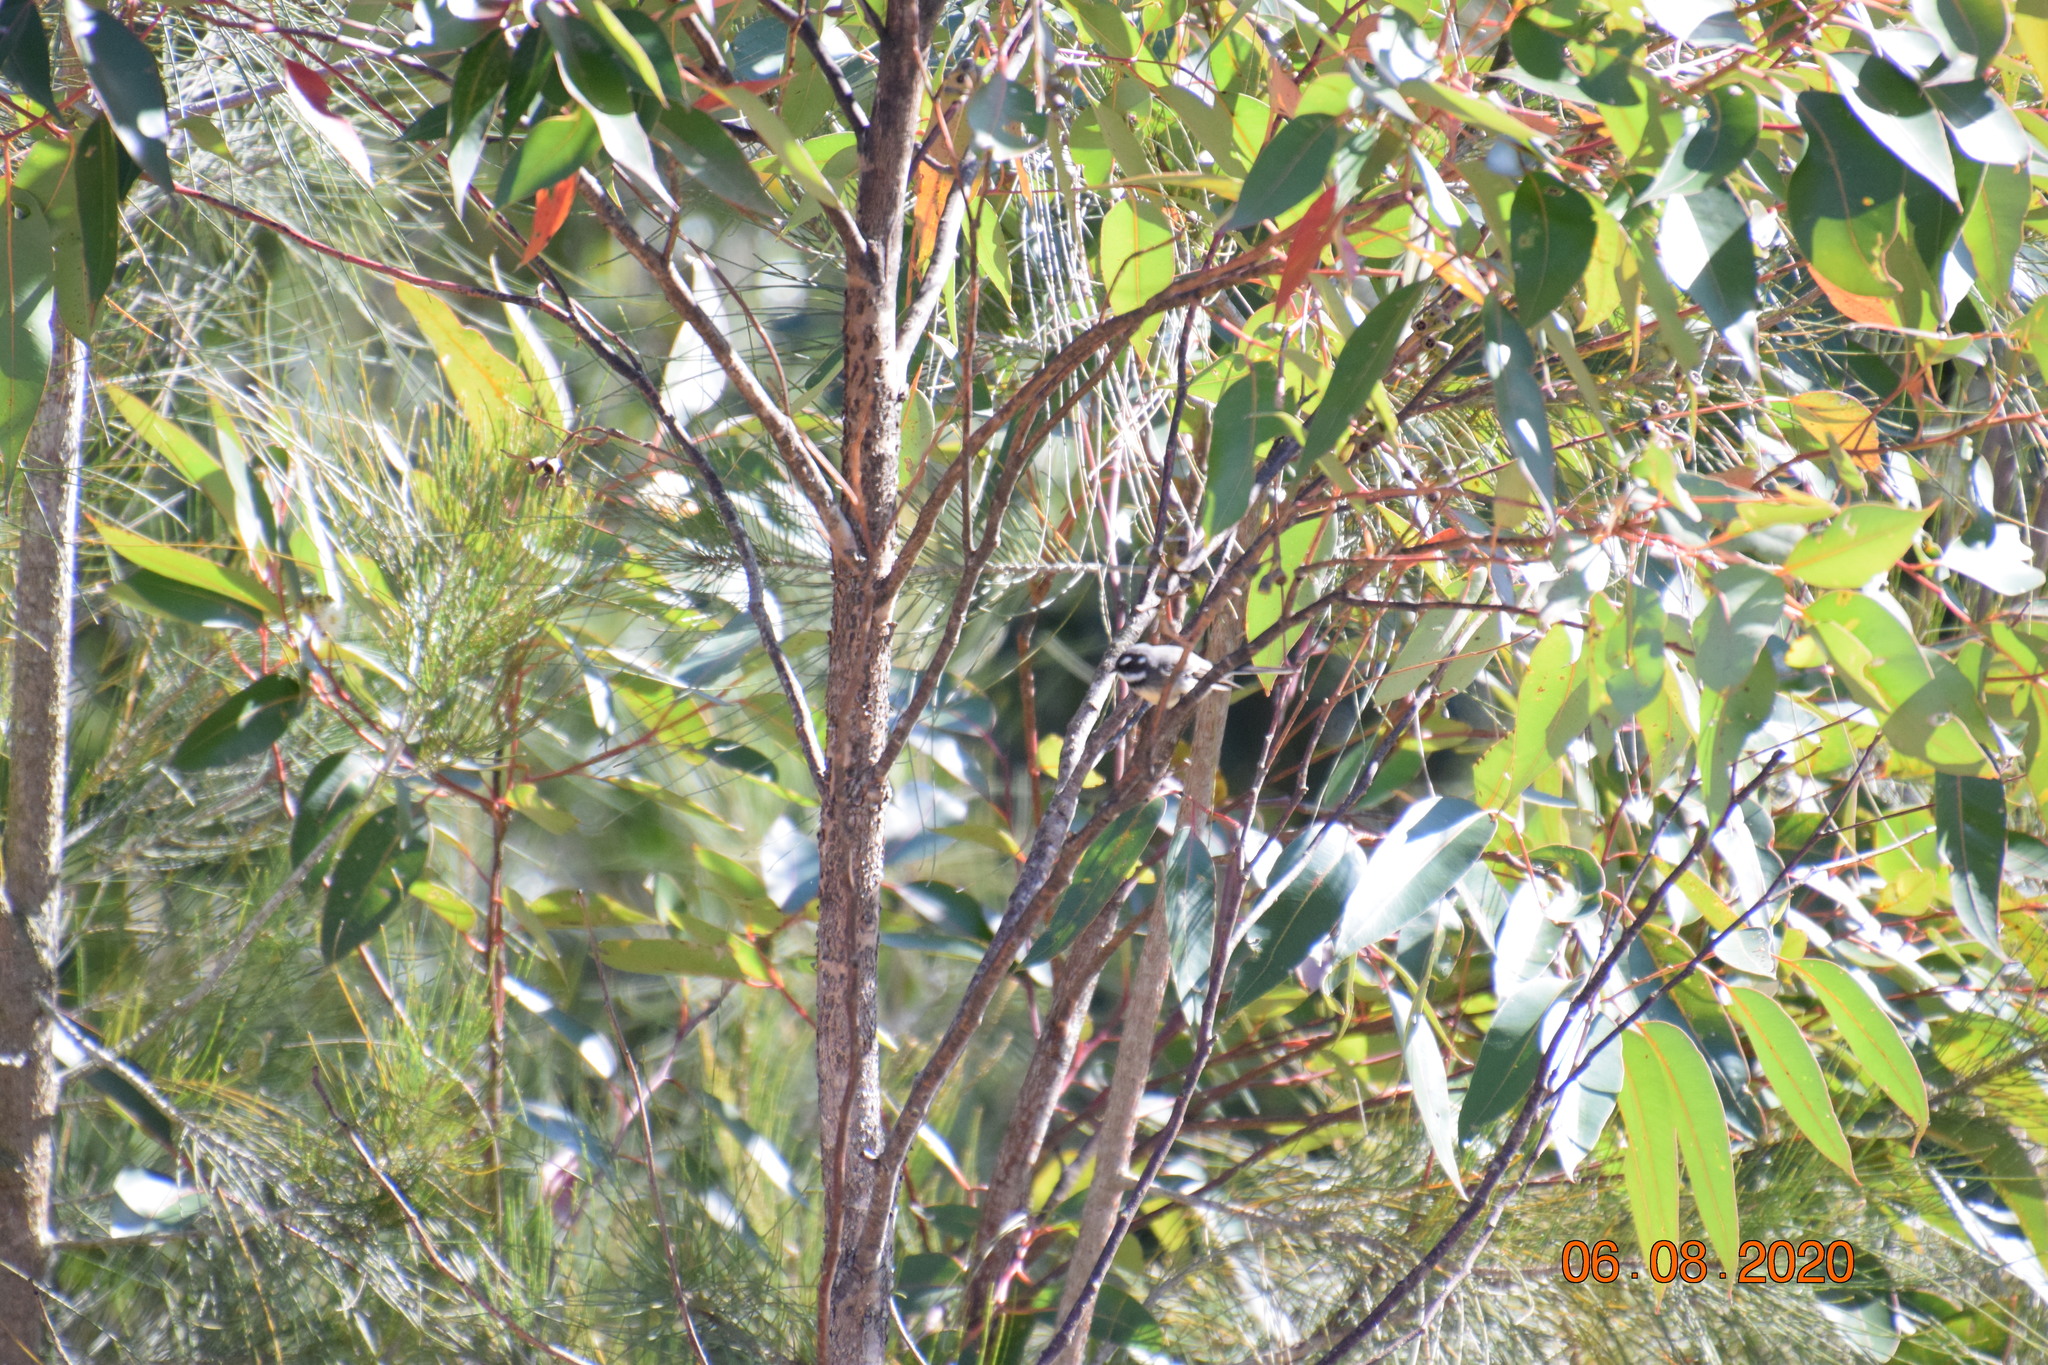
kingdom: Animalia
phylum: Chordata
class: Aves
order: Passeriformes
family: Rhipiduridae
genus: Rhipidura
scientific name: Rhipidura albiscapa
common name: Grey fantail
